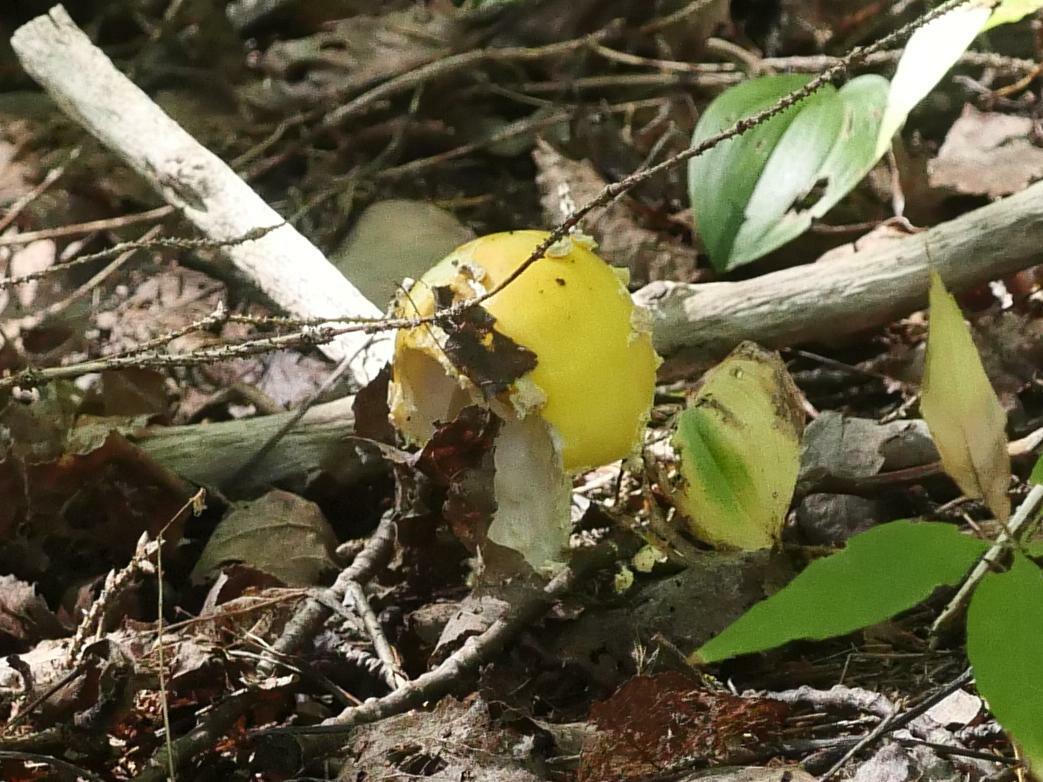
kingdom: Fungi
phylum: Basidiomycota
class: Agaricomycetes
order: Agaricales
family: Amanitaceae
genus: Amanita
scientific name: Amanita muscaria
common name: Fly agaric
